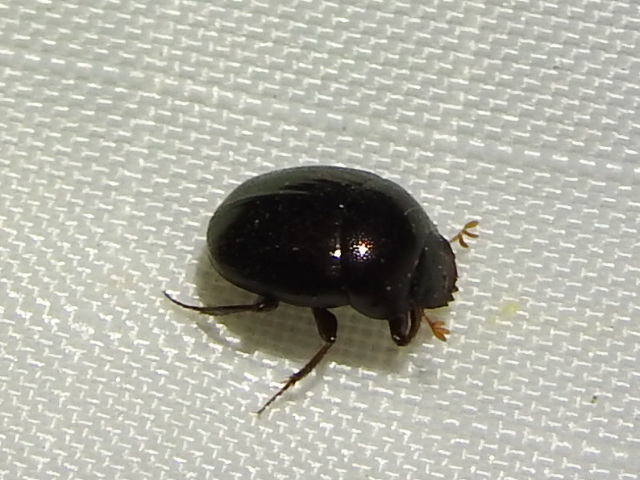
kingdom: Animalia
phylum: Arthropoda
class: Insecta
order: Coleoptera
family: Scarabaeidae
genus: Pseudocanthon
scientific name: Pseudocanthon perplexus
